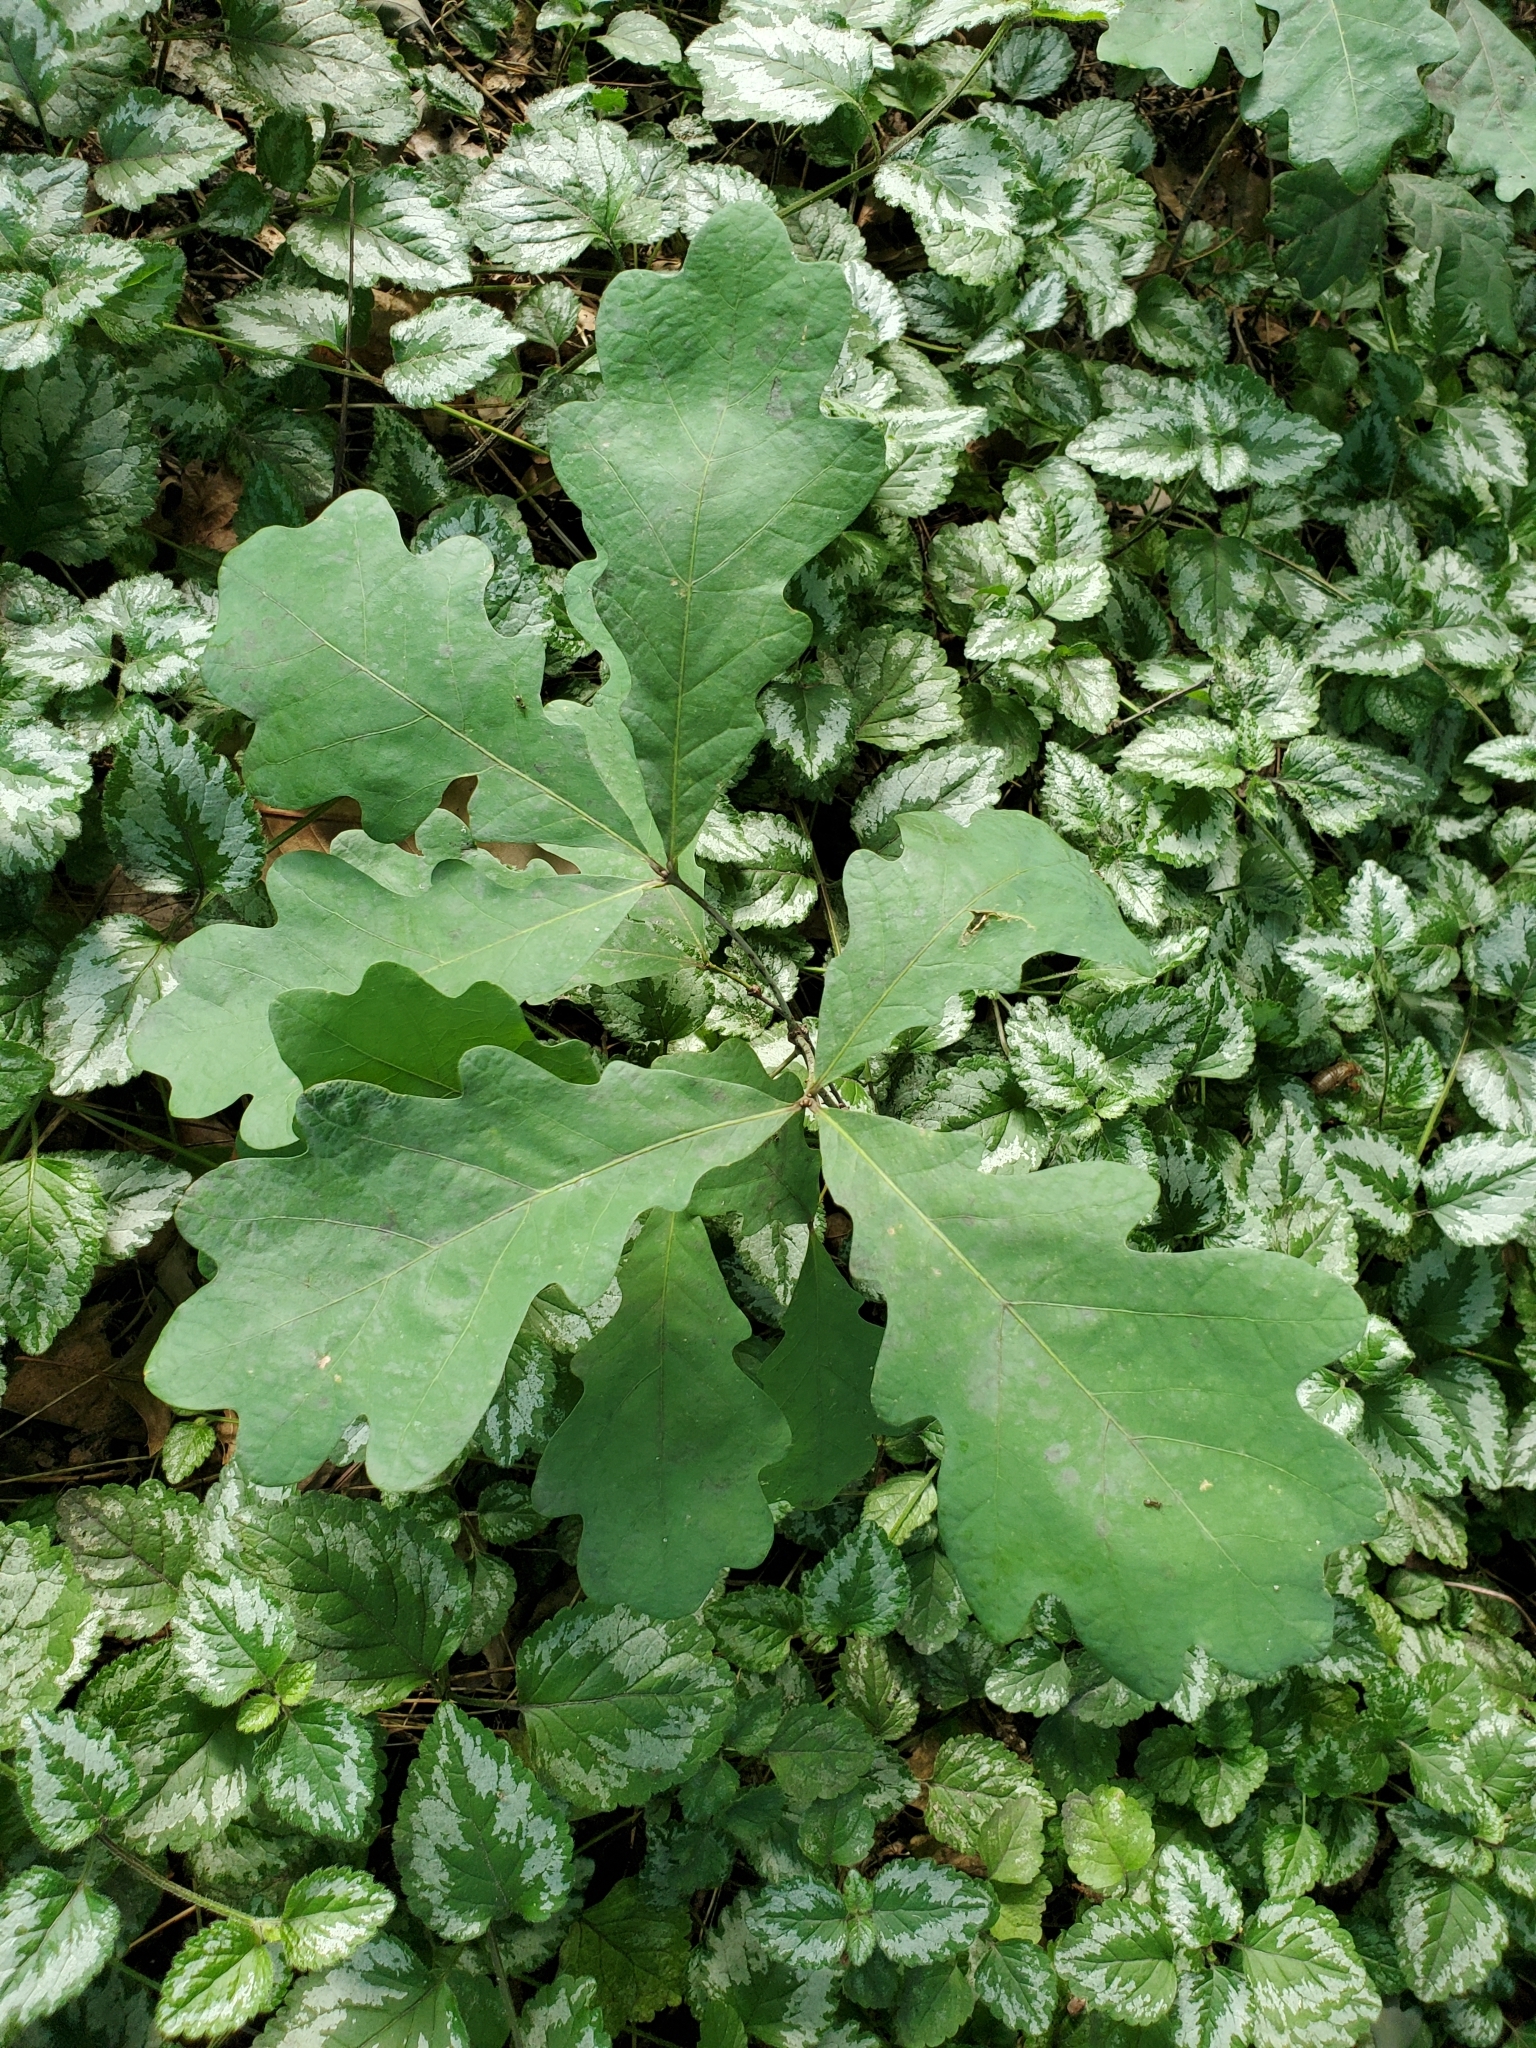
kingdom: Plantae
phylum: Tracheophyta
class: Magnoliopsida
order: Fagales
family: Fagaceae
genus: Quercus
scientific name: Quercus alba
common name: White oak
